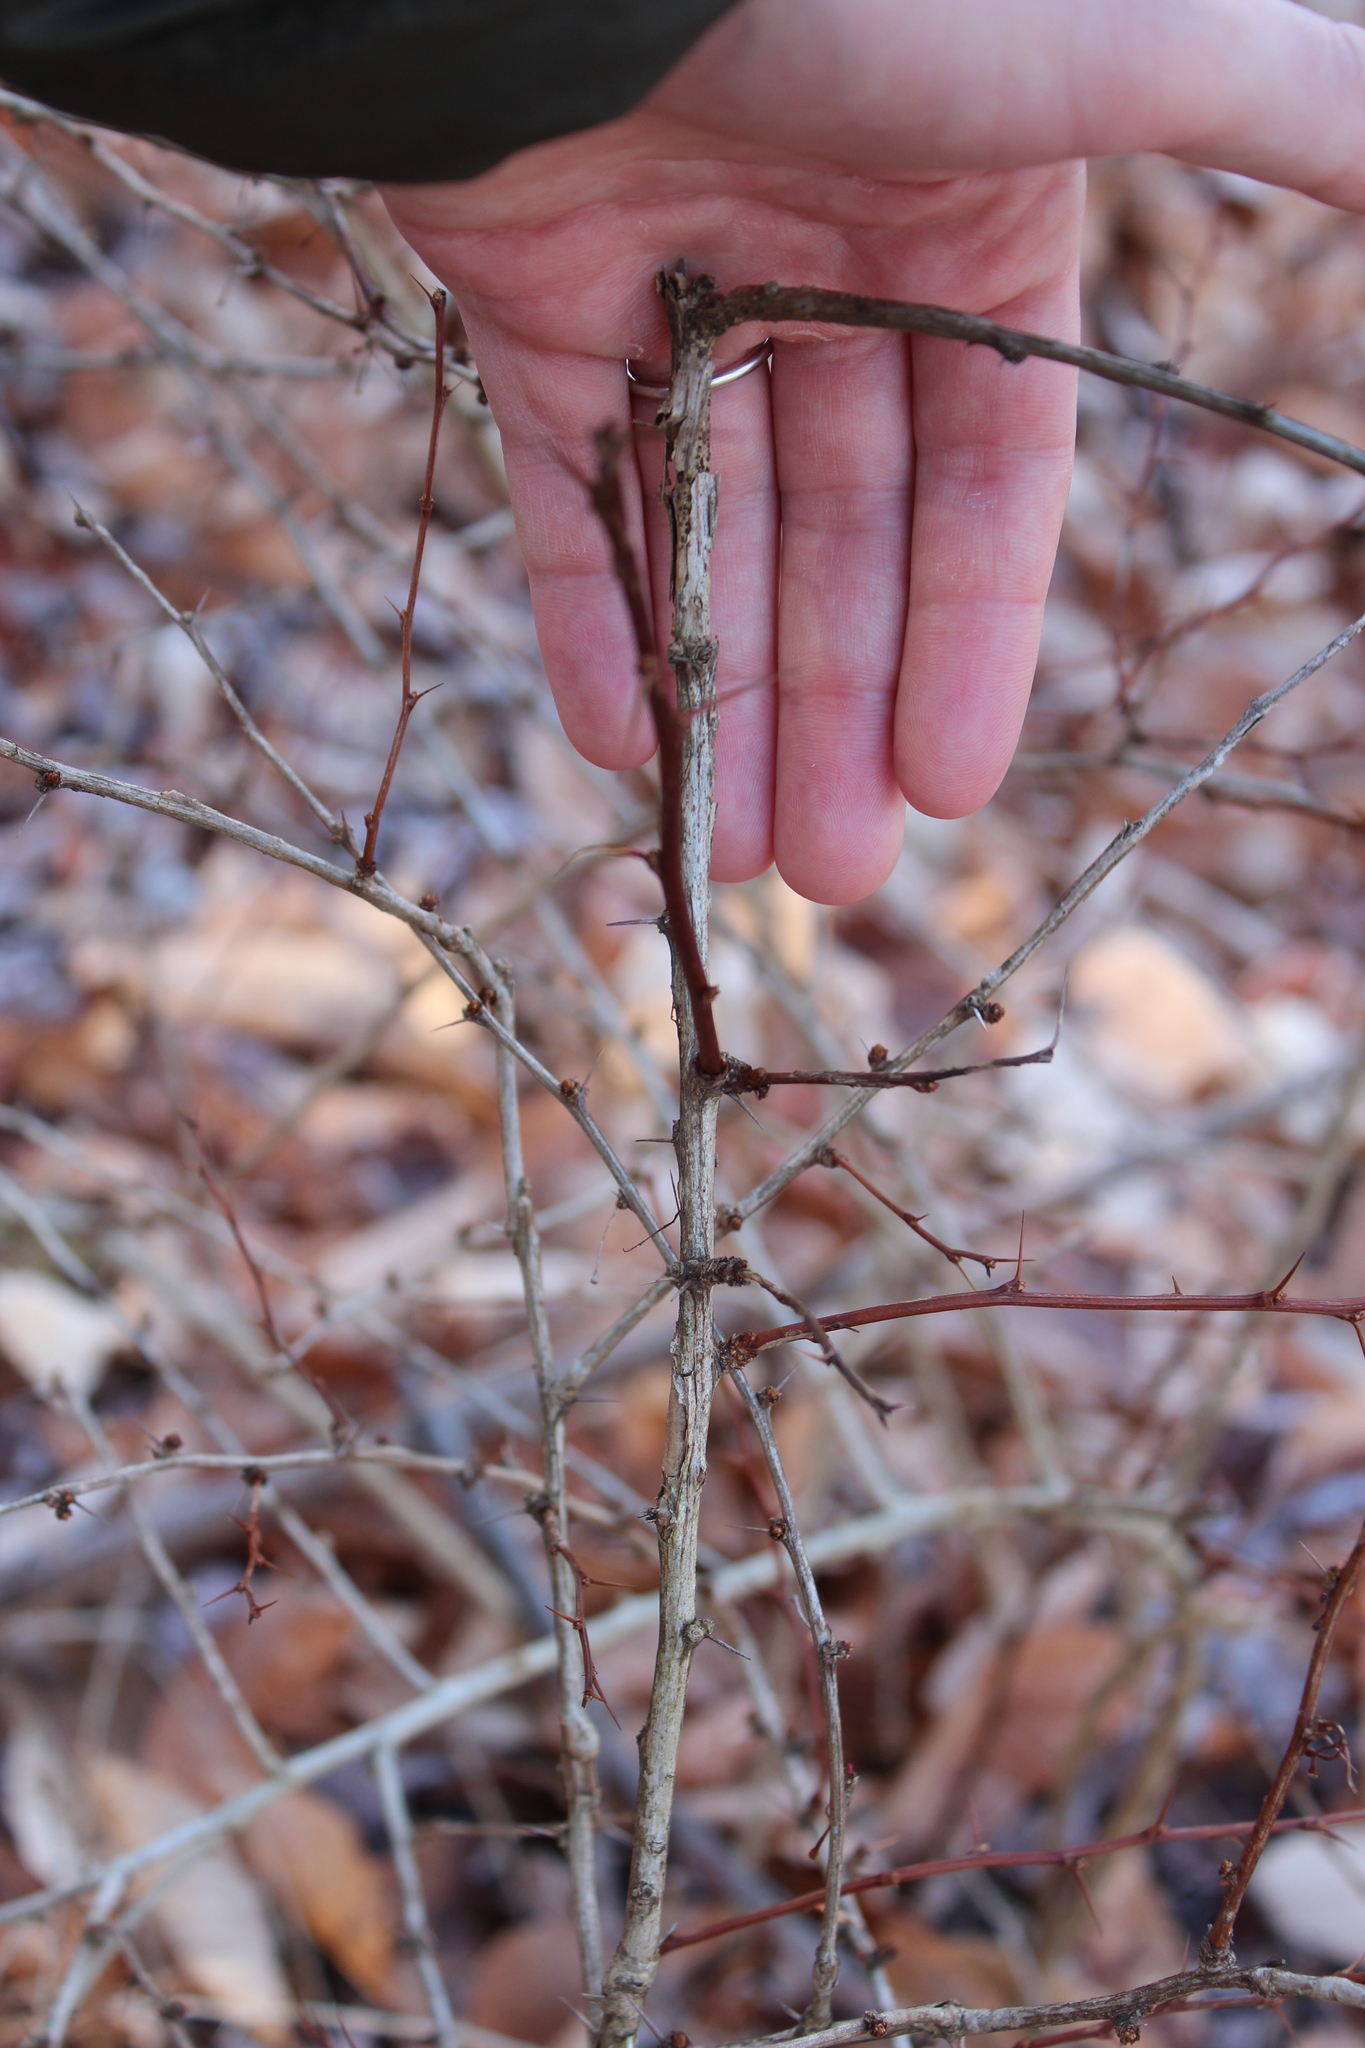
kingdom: Plantae
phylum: Tracheophyta
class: Magnoliopsida
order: Ranunculales
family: Berberidaceae
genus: Berberis
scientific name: Berberis thunbergii
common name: Japanese barberry
